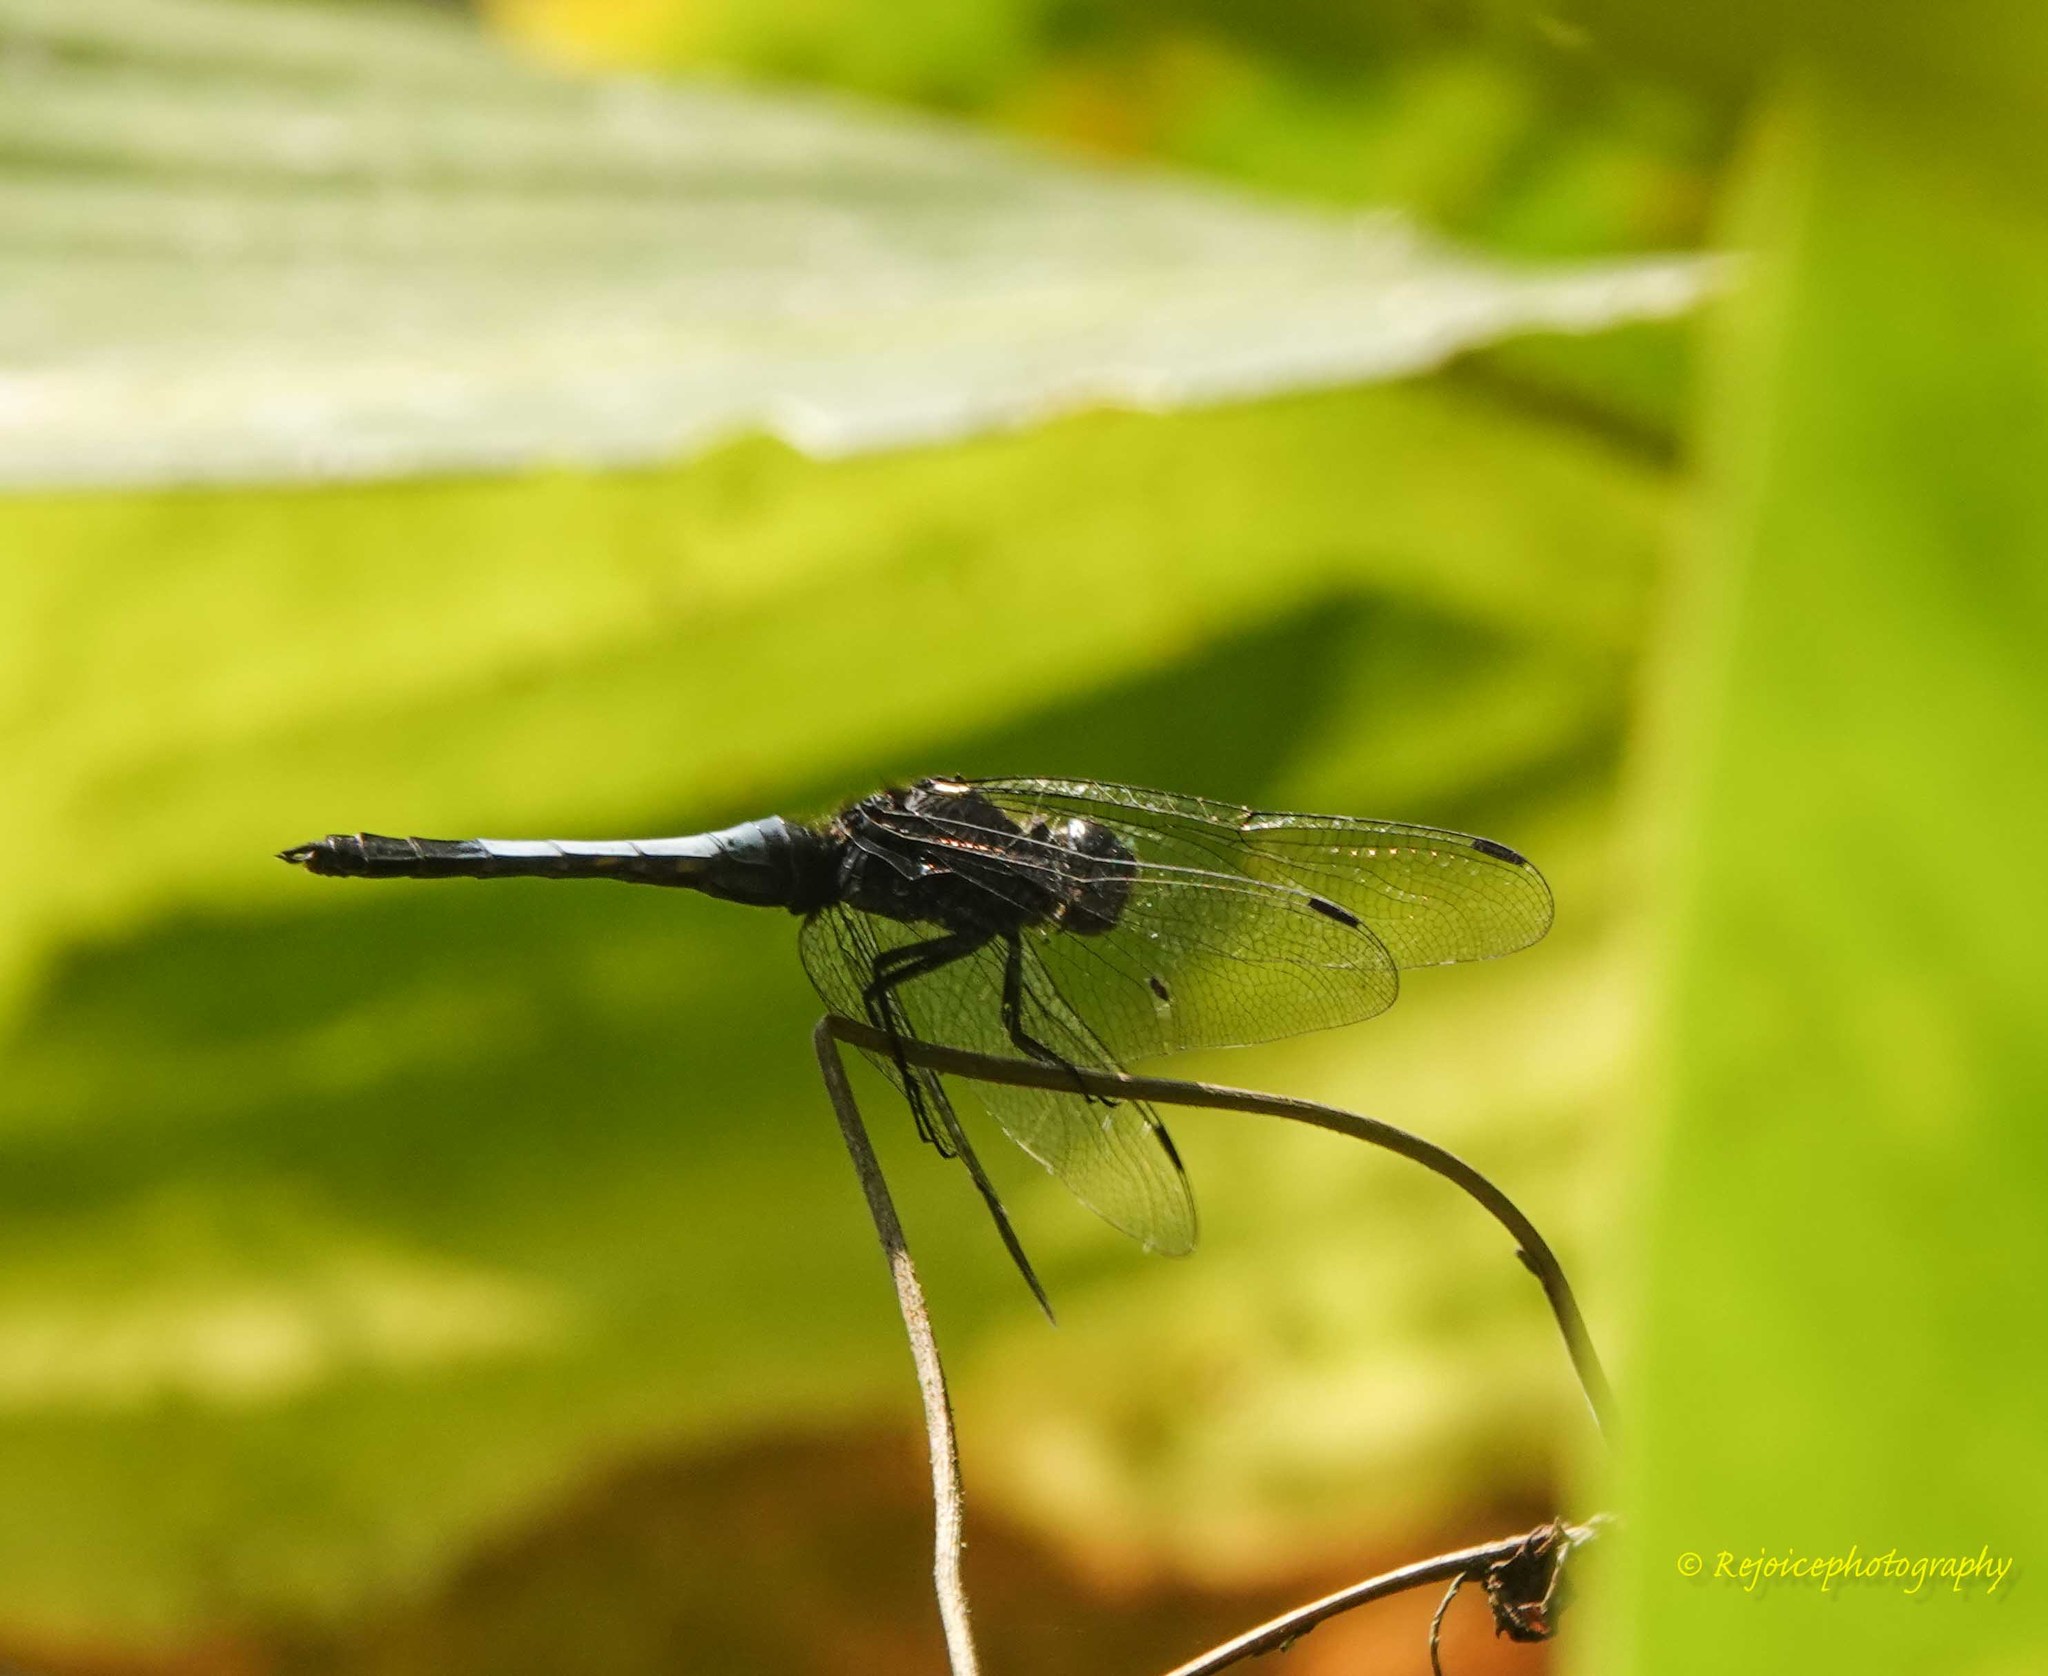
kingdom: Animalia
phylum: Arthropoda
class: Insecta
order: Odonata
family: Libellulidae
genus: Orthetrum
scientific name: Orthetrum triangulare
